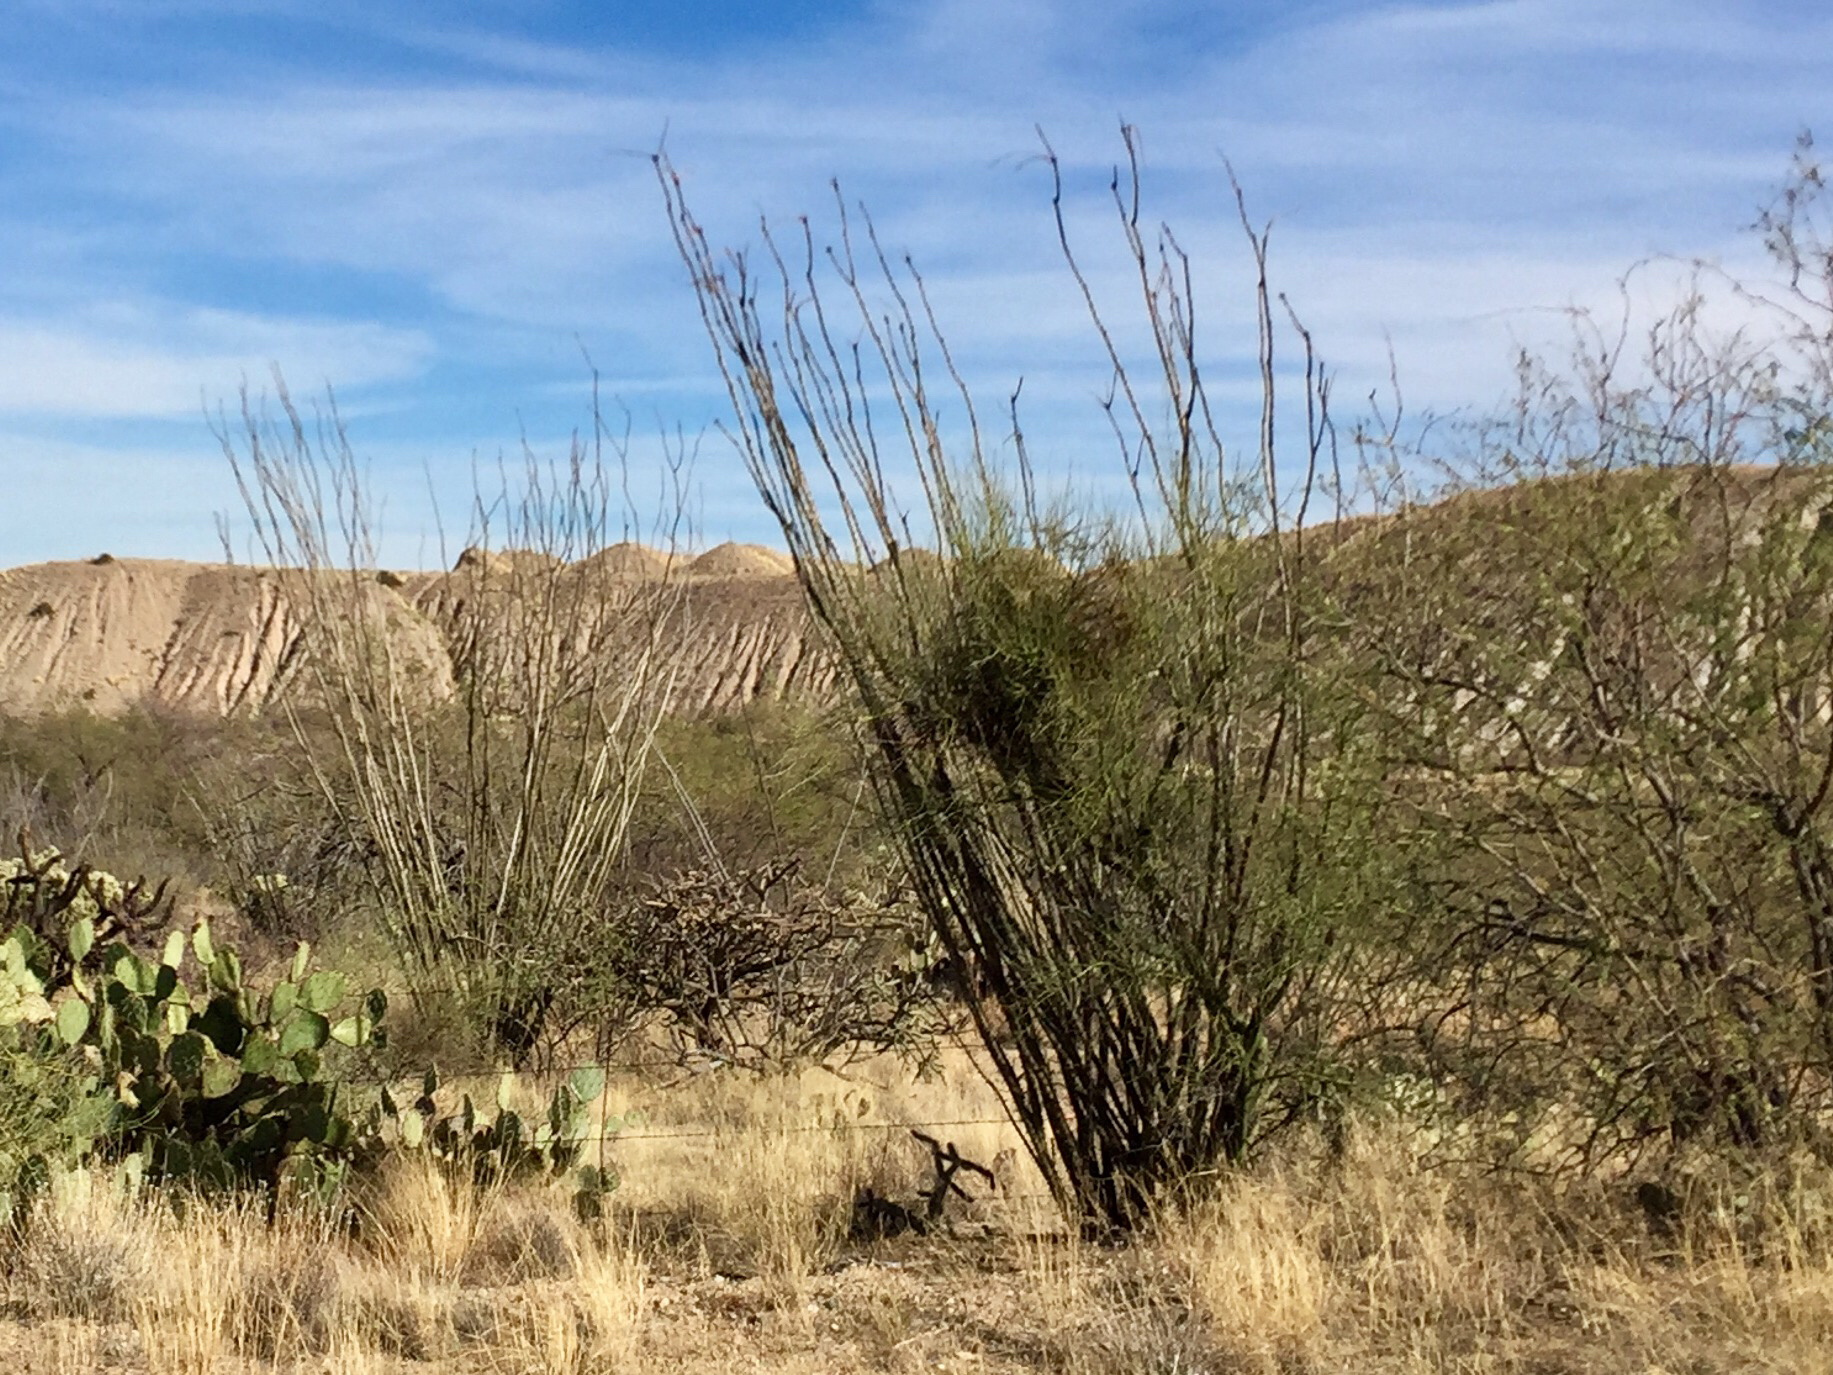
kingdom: Plantae
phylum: Tracheophyta
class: Magnoliopsida
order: Ericales
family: Fouquieriaceae
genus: Fouquieria
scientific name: Fouquieria splendens
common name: Vine-cactus
